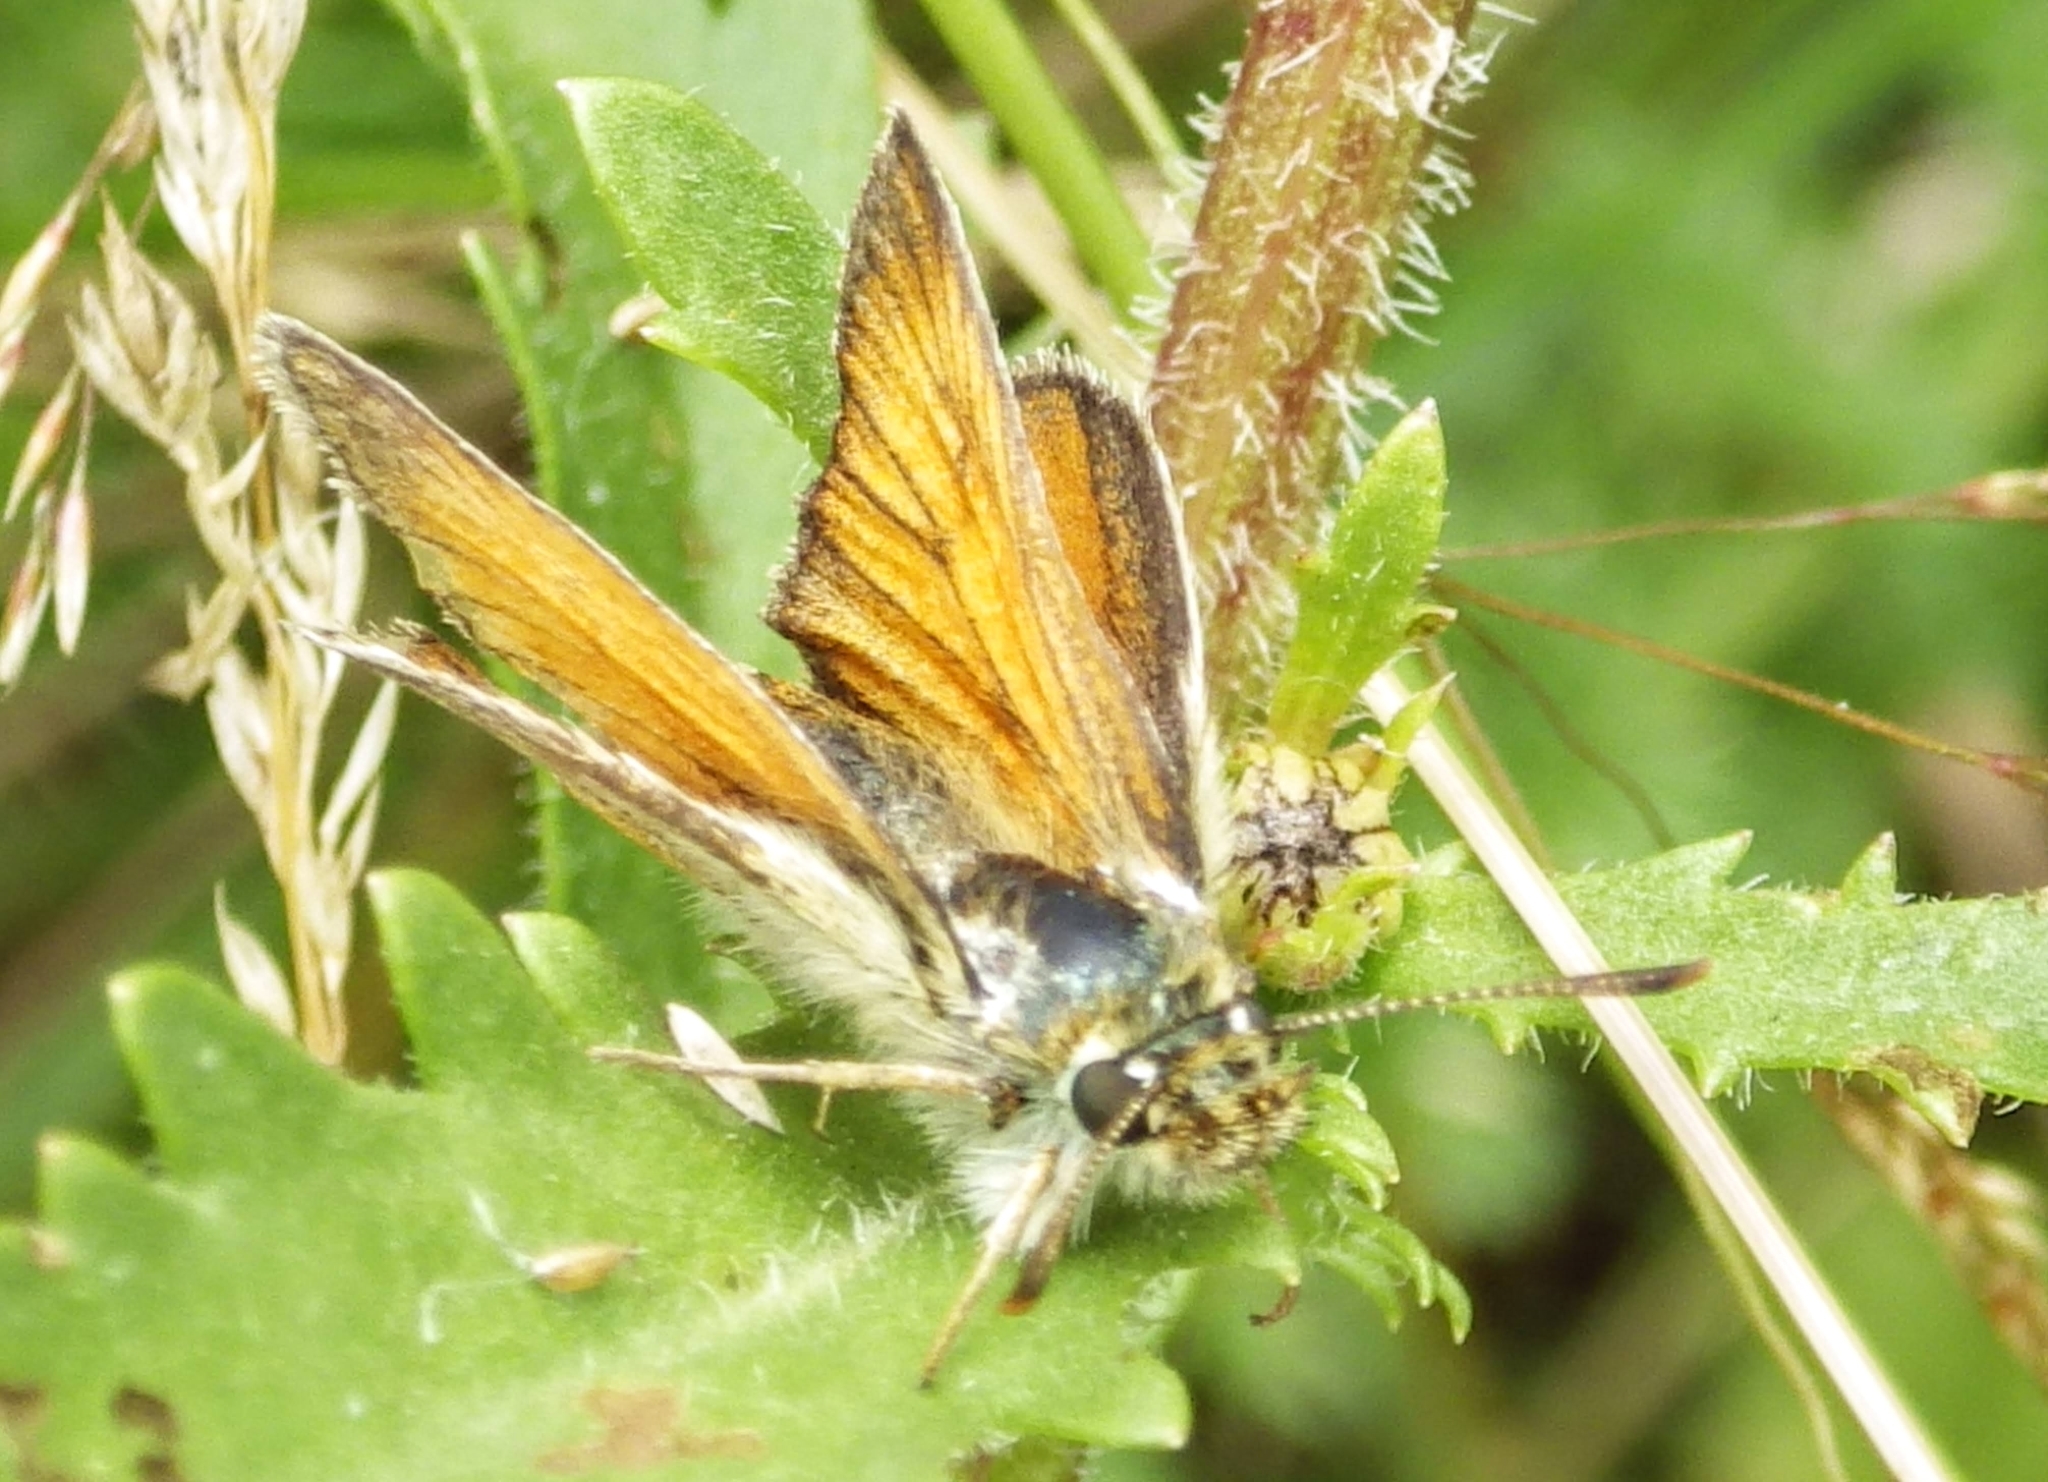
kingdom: Animalia
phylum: Arthropoda
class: Insecta
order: Lepidoptera
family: Hesperiidae
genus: Thymelicus
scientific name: Thymelicus sylvestris
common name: Small skipper
